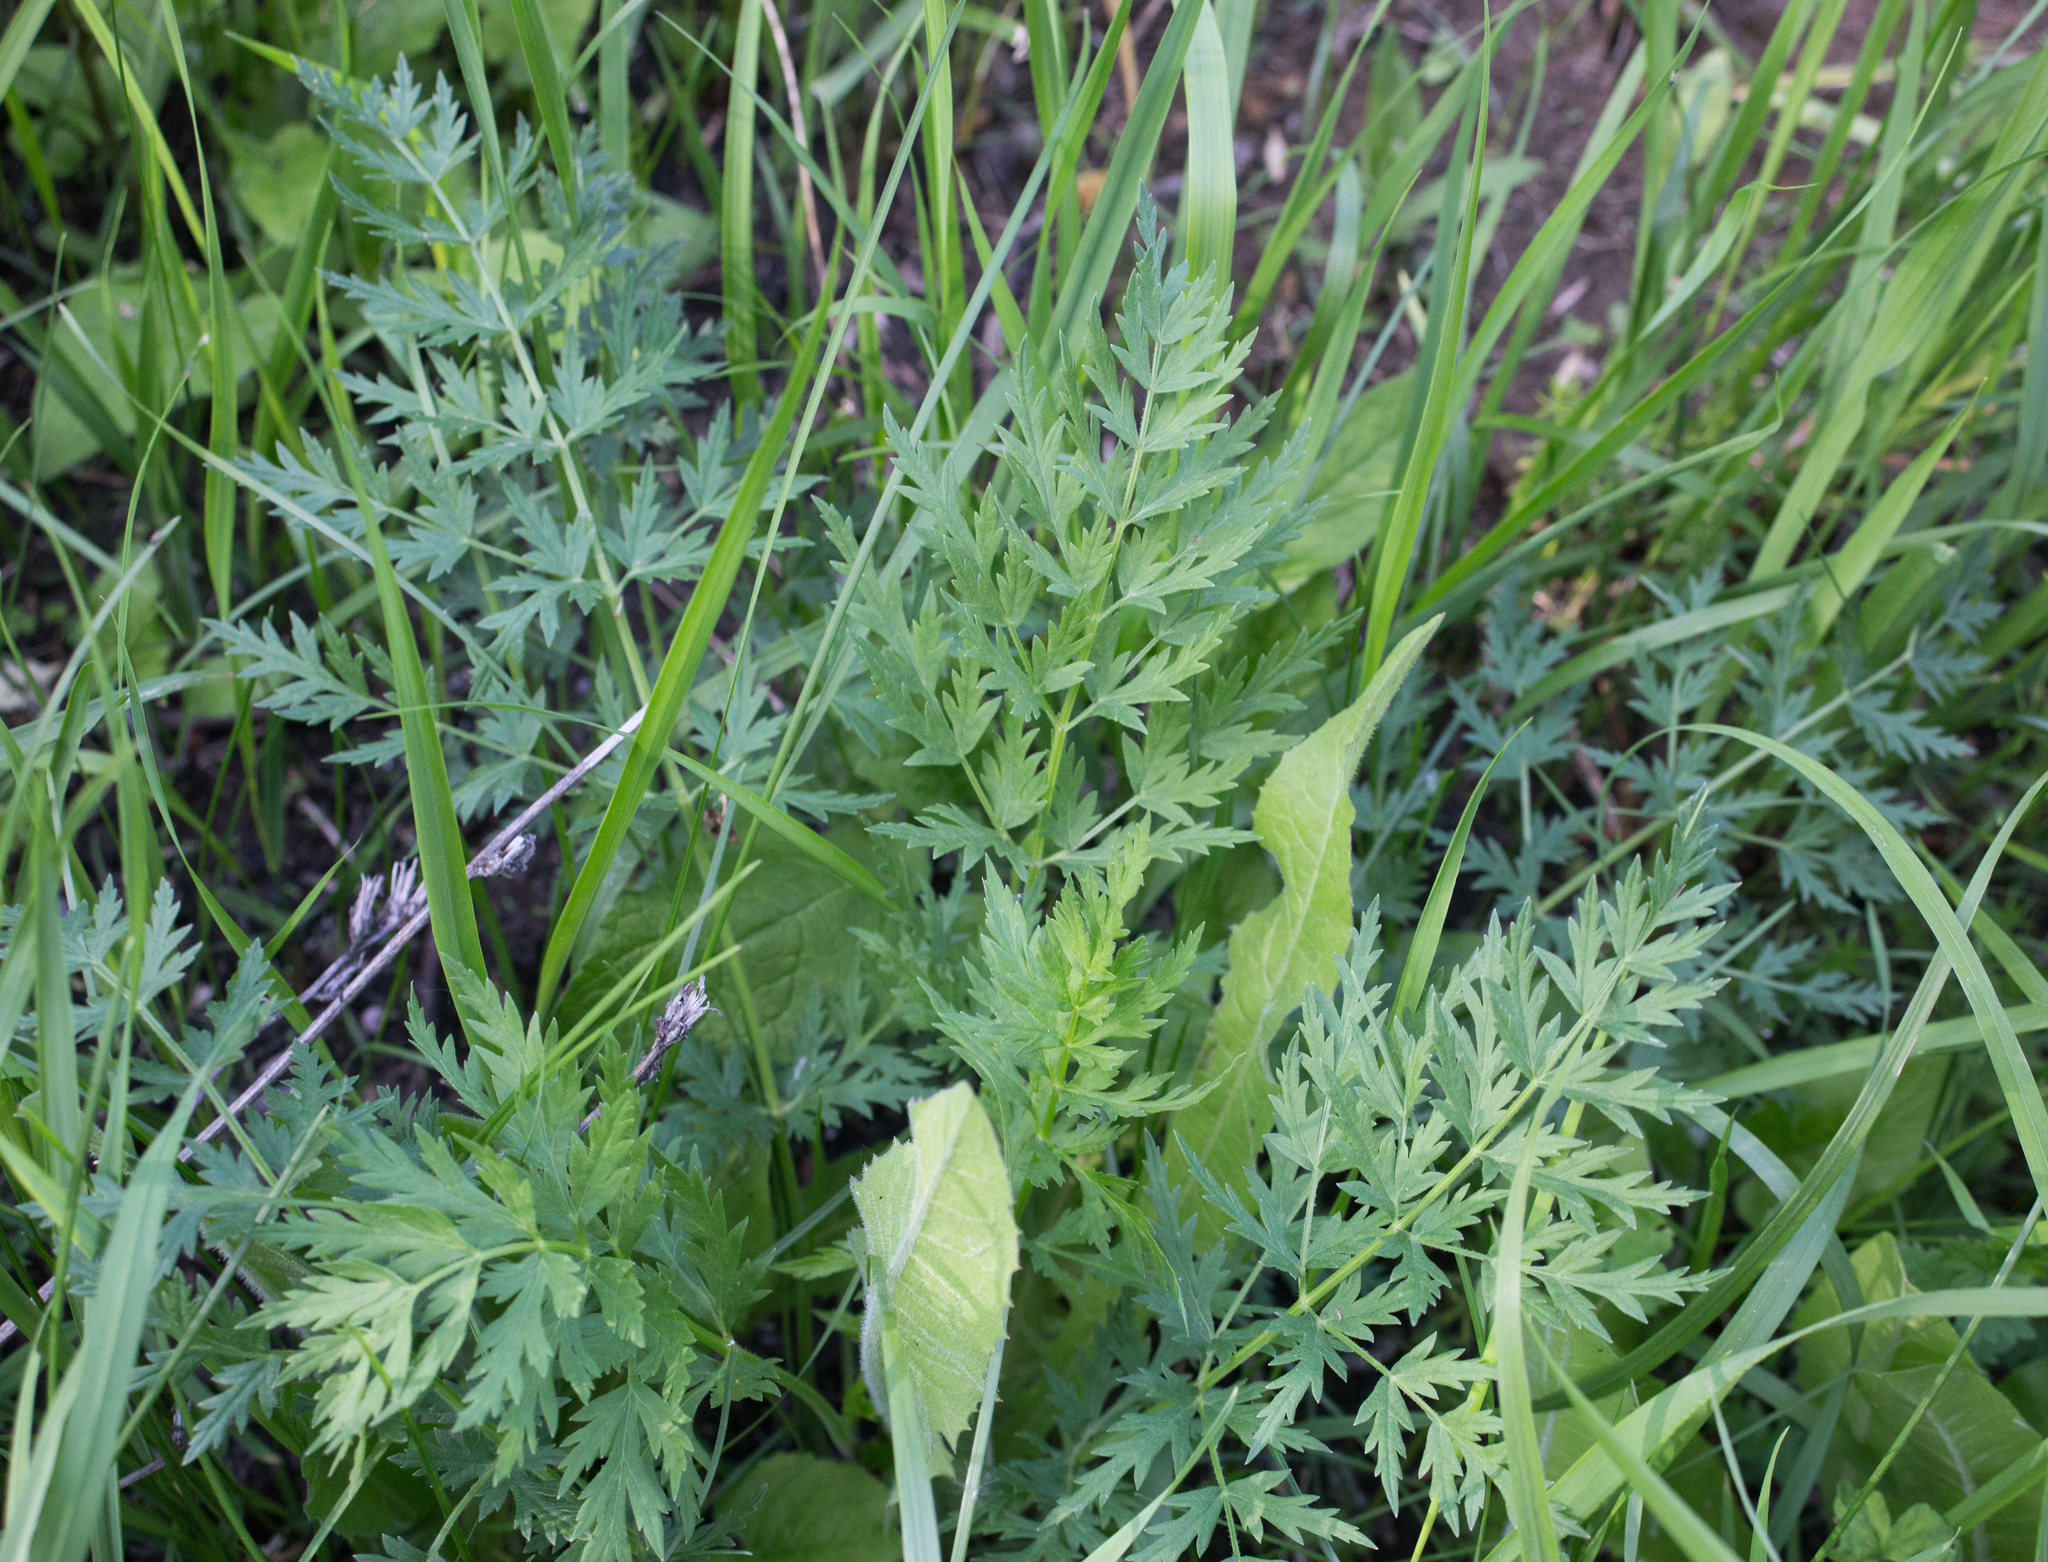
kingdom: Plantae
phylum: Tracheophyta
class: Magnoliopsida
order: Apiales
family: Apiaceae
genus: Seseli
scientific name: Seseli libanotis
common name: Mooncarrot
